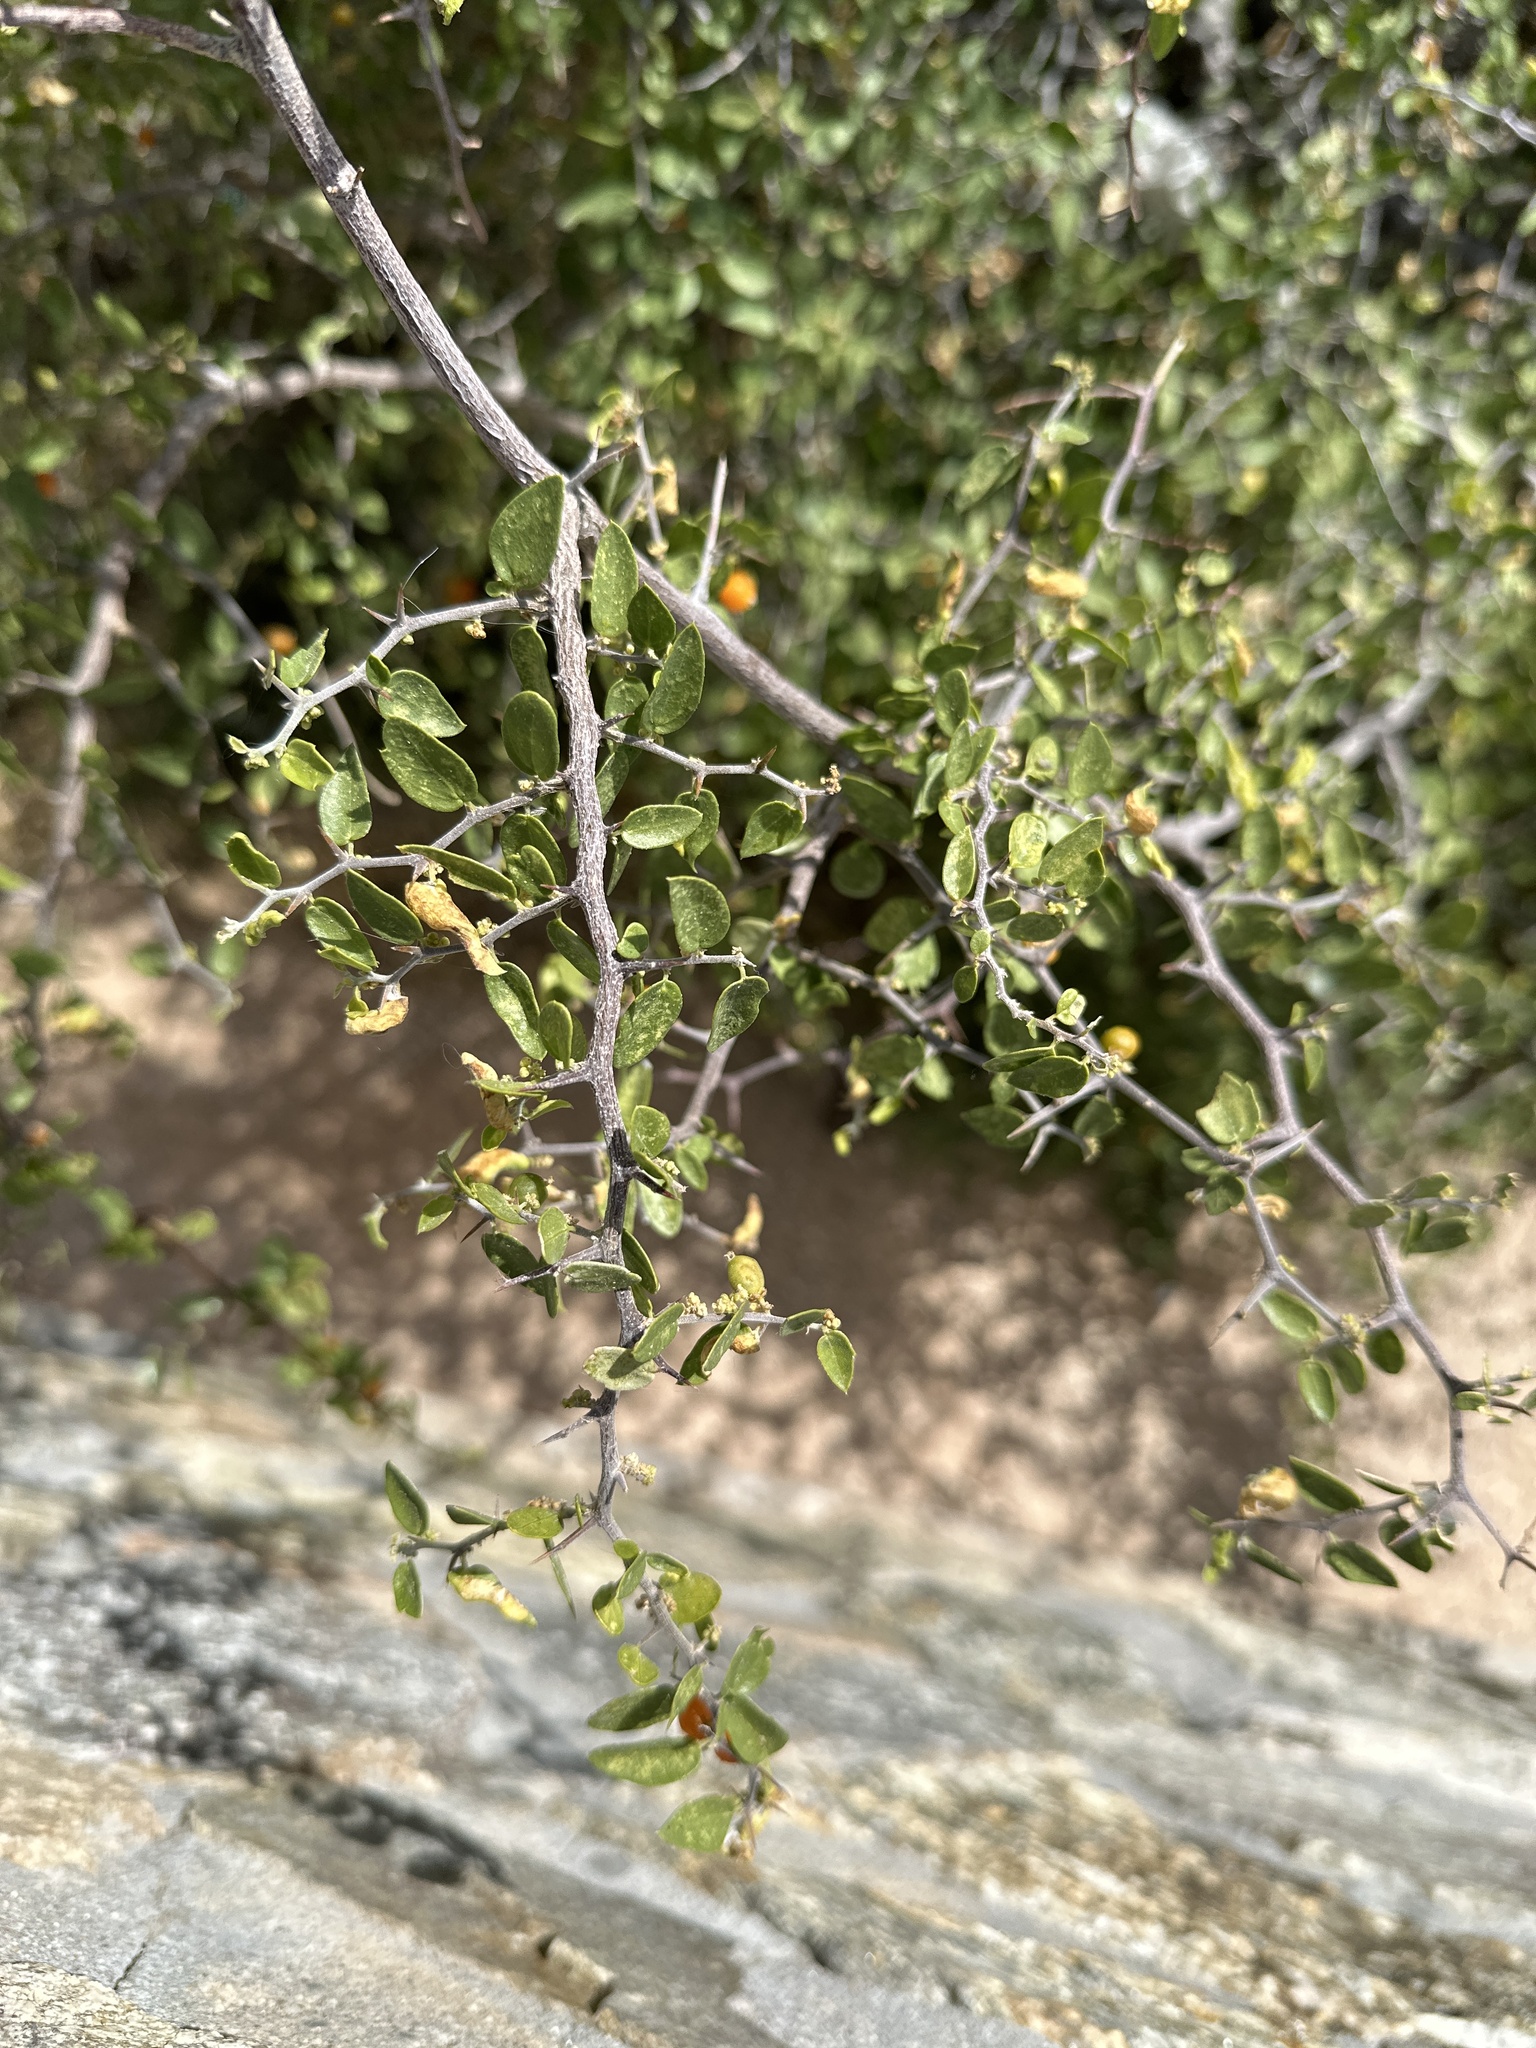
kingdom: Plantae
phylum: Tracheophyta
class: Magnoliopsida
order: Rosales
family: Cannabaceae
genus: Celtis
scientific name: Celtis pallida
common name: Desert hackberry
